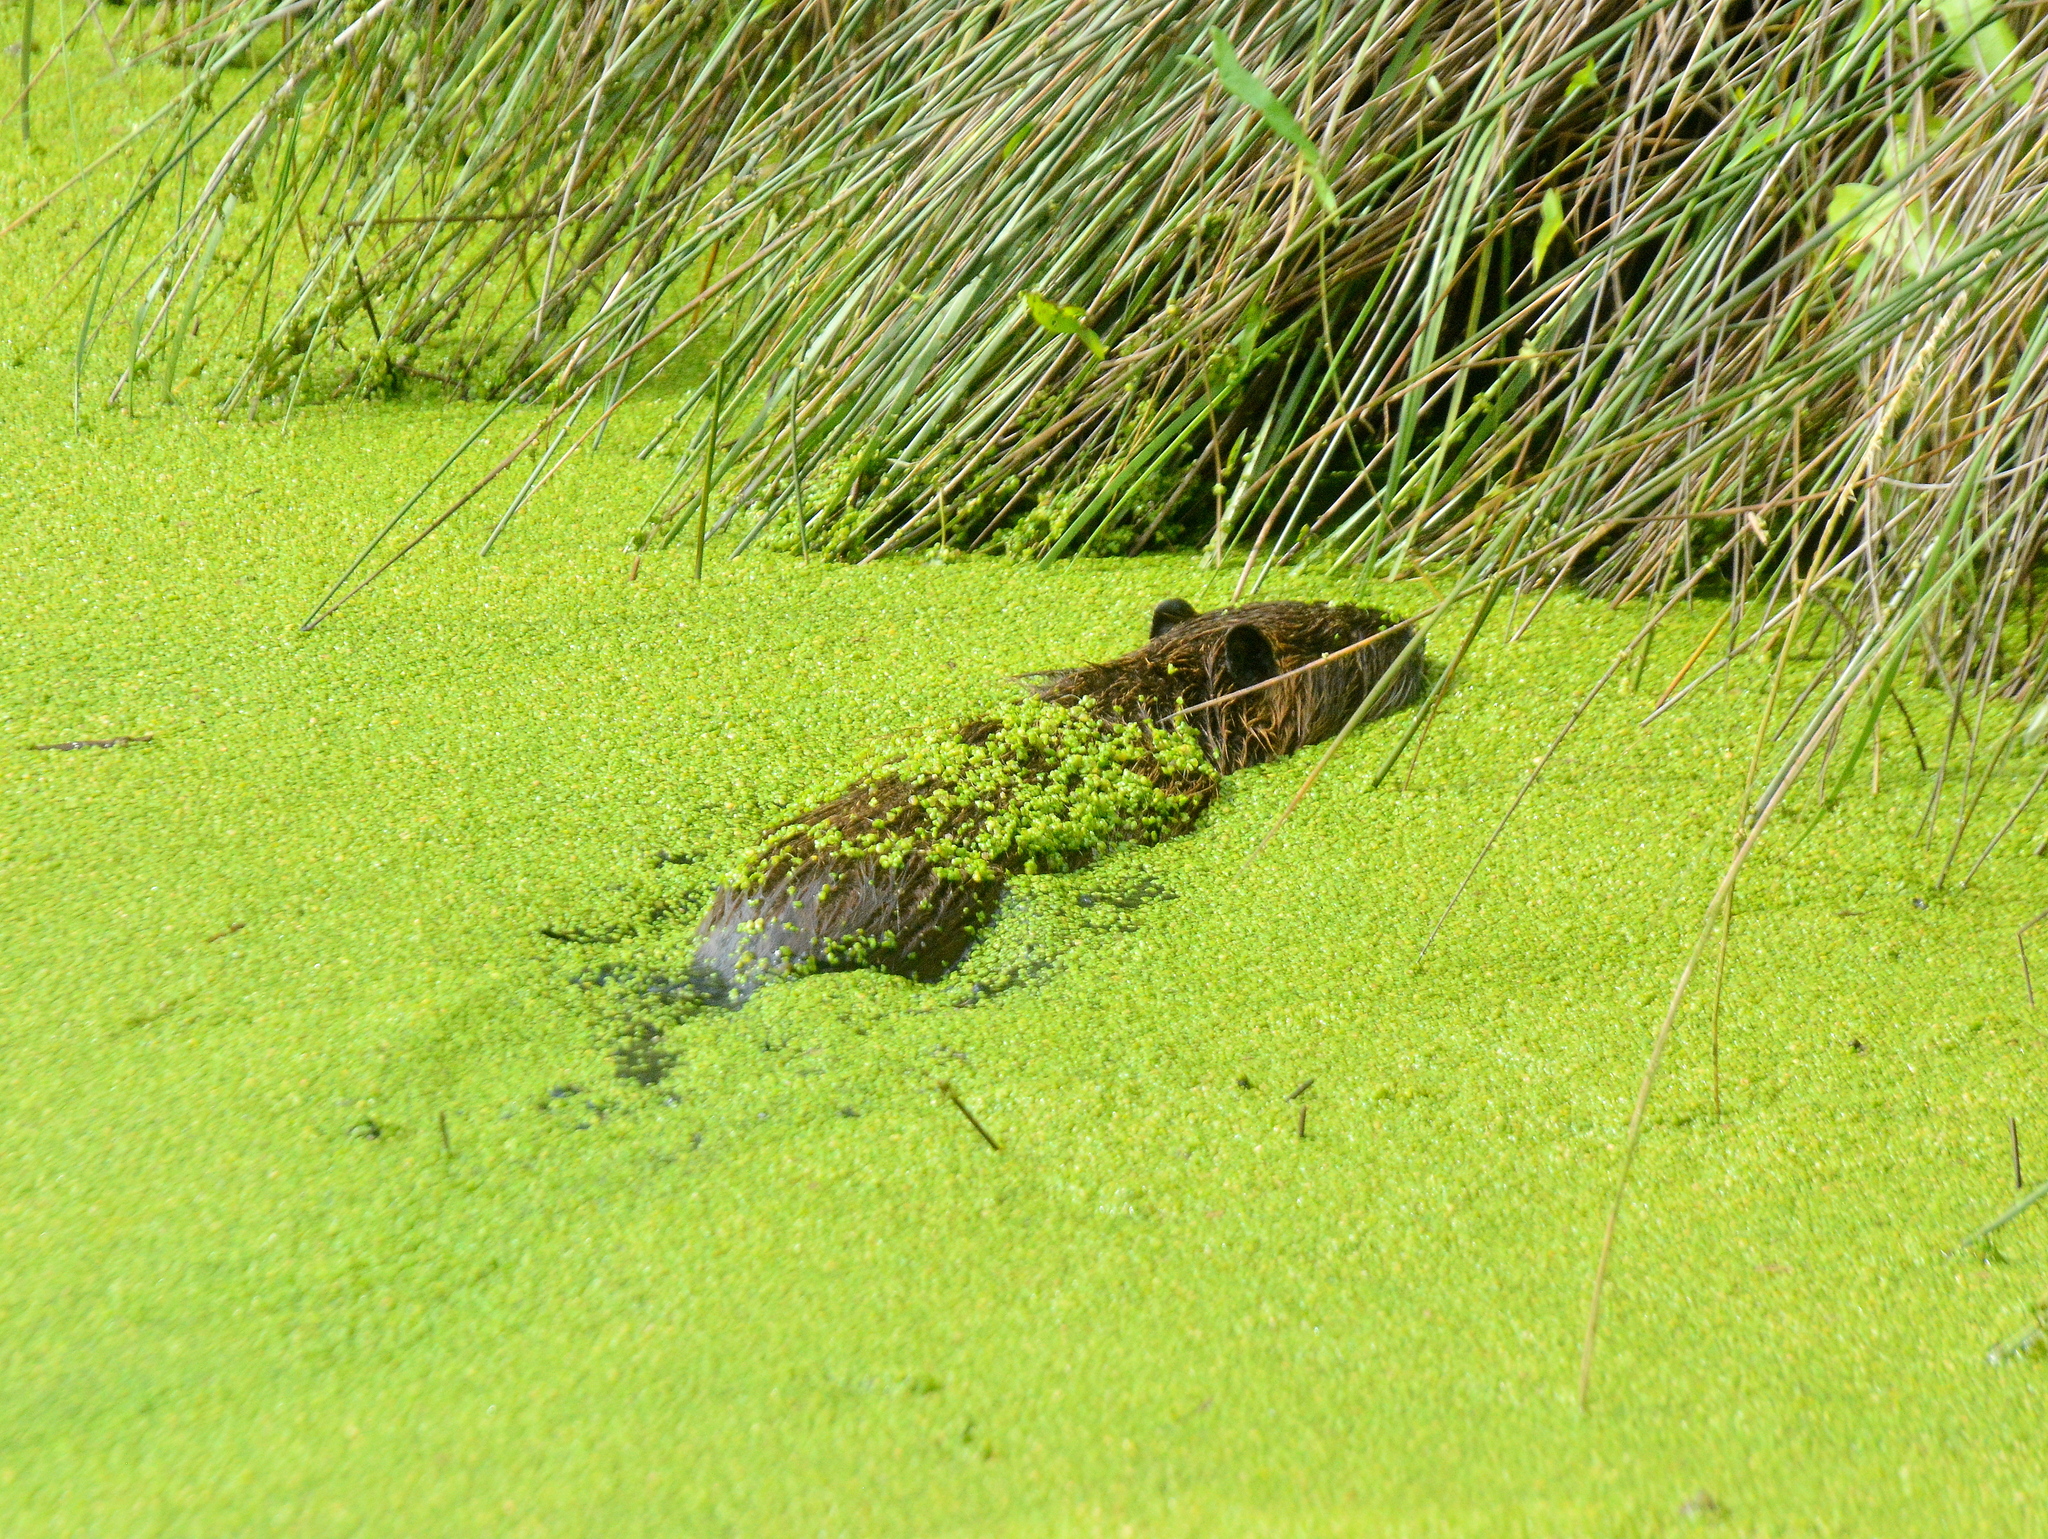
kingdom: Animalia
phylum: Chordata
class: Mammalia
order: Rodentia
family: Myocastoridae
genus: Myocastor
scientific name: Myocastor coypus
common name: Coypu
